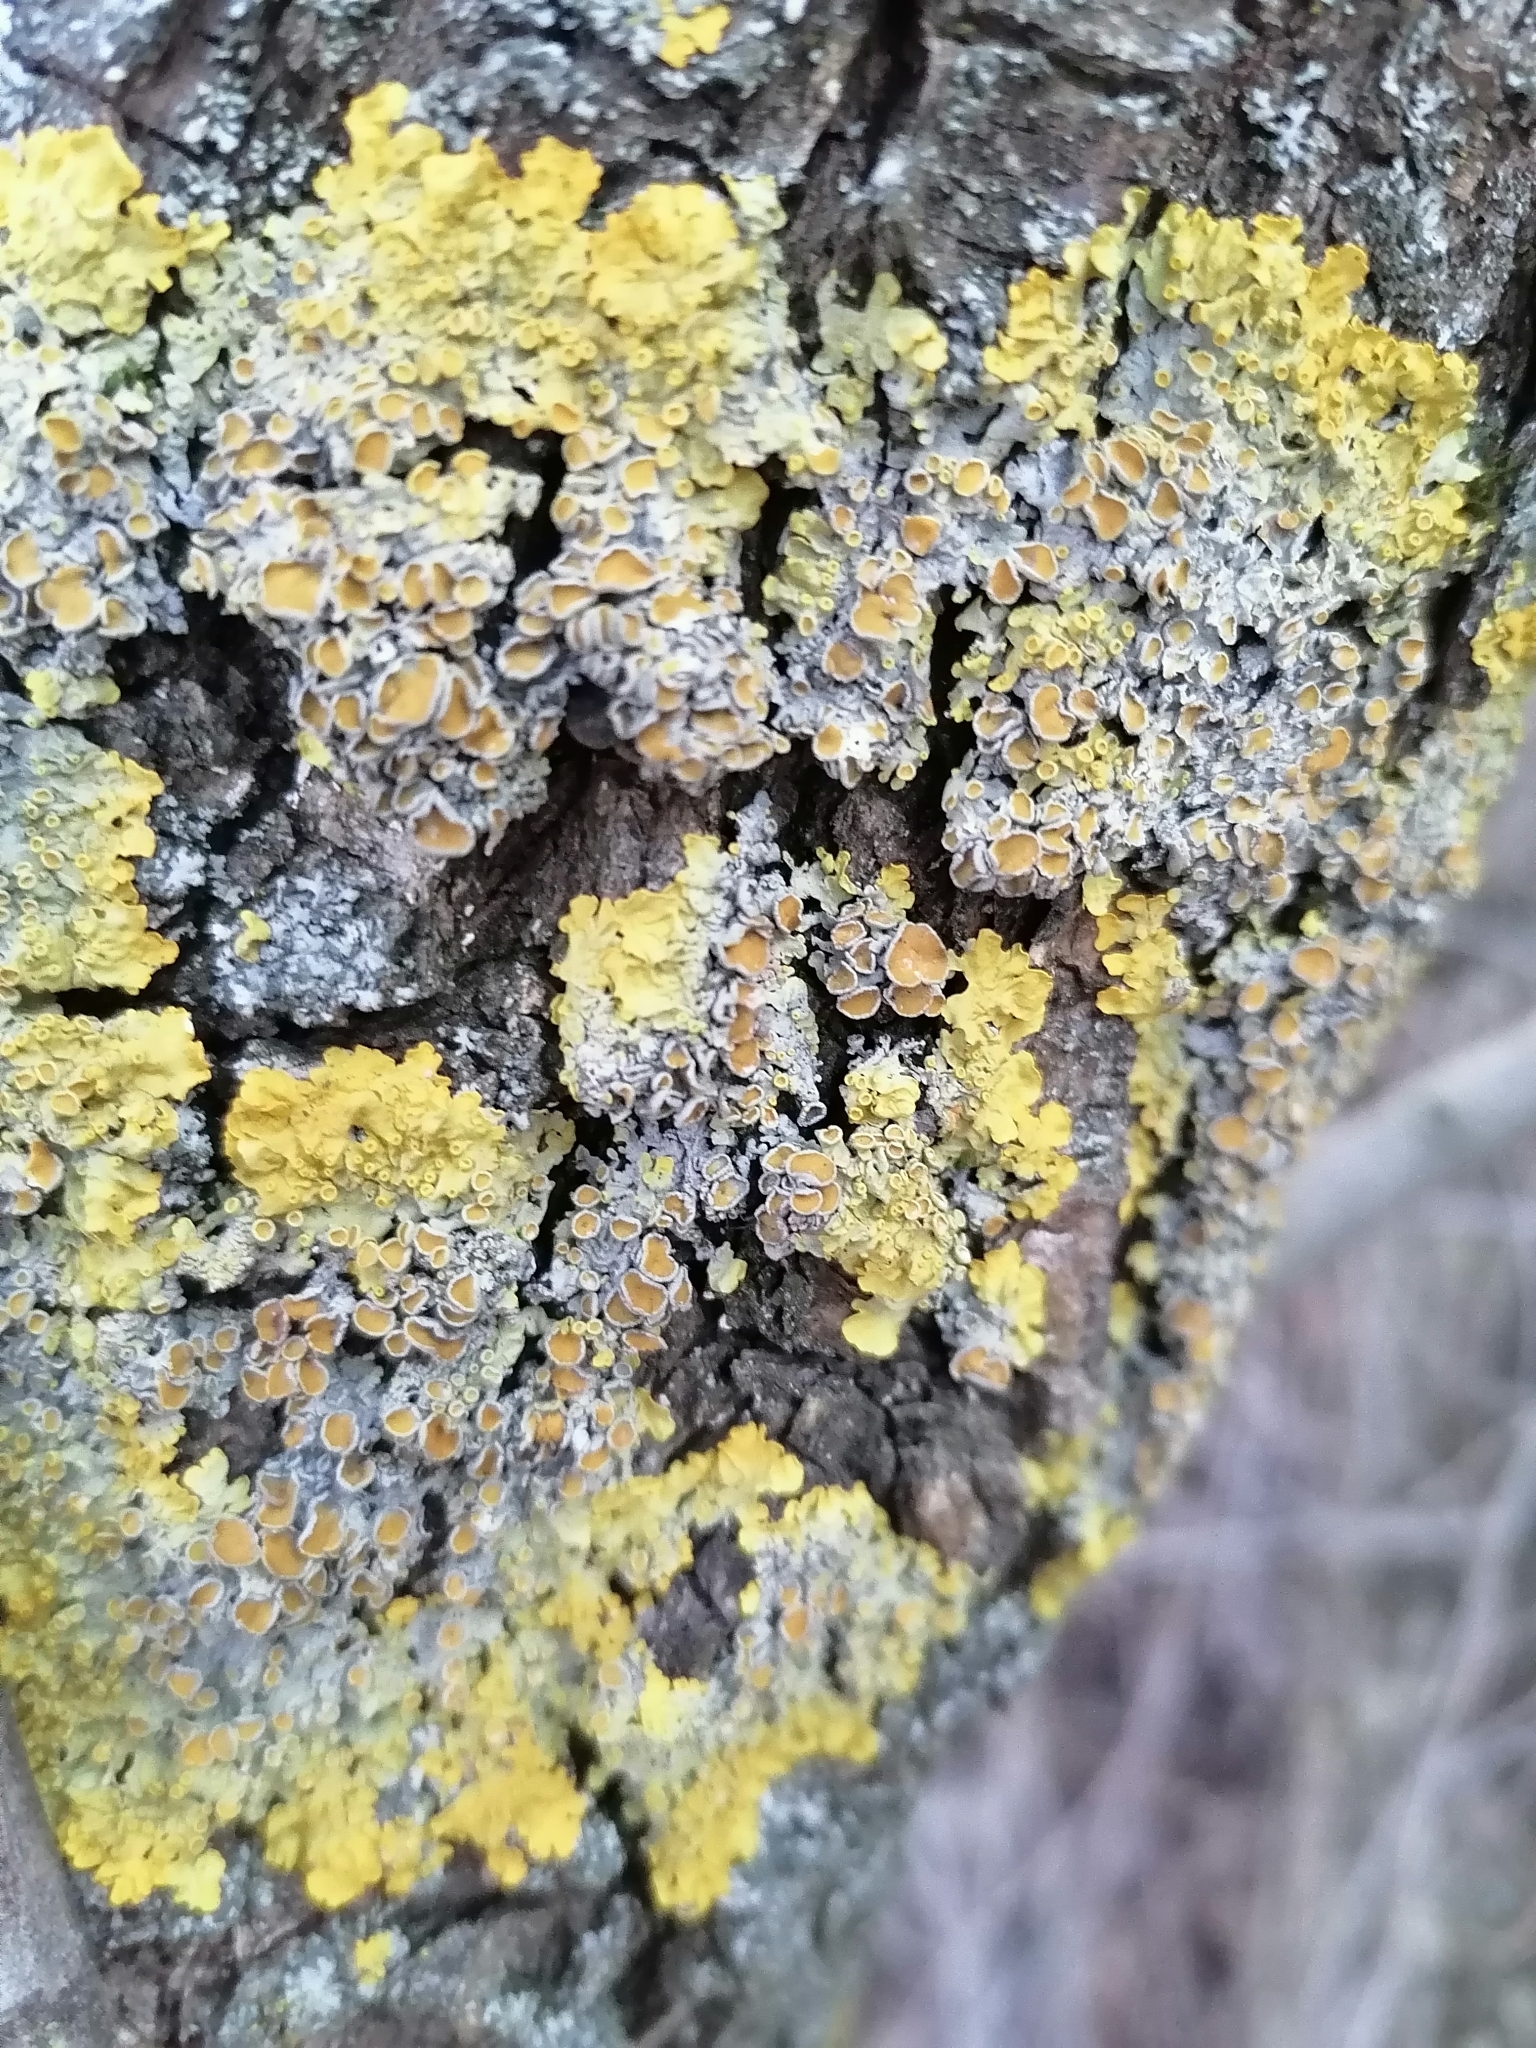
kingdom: Fungi
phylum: Ascomycota
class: Lecanoromycetes
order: Teloschistales
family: Teloschistaceae
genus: Xanthoria
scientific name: Xanthoria parietina
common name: Common orange lichen
